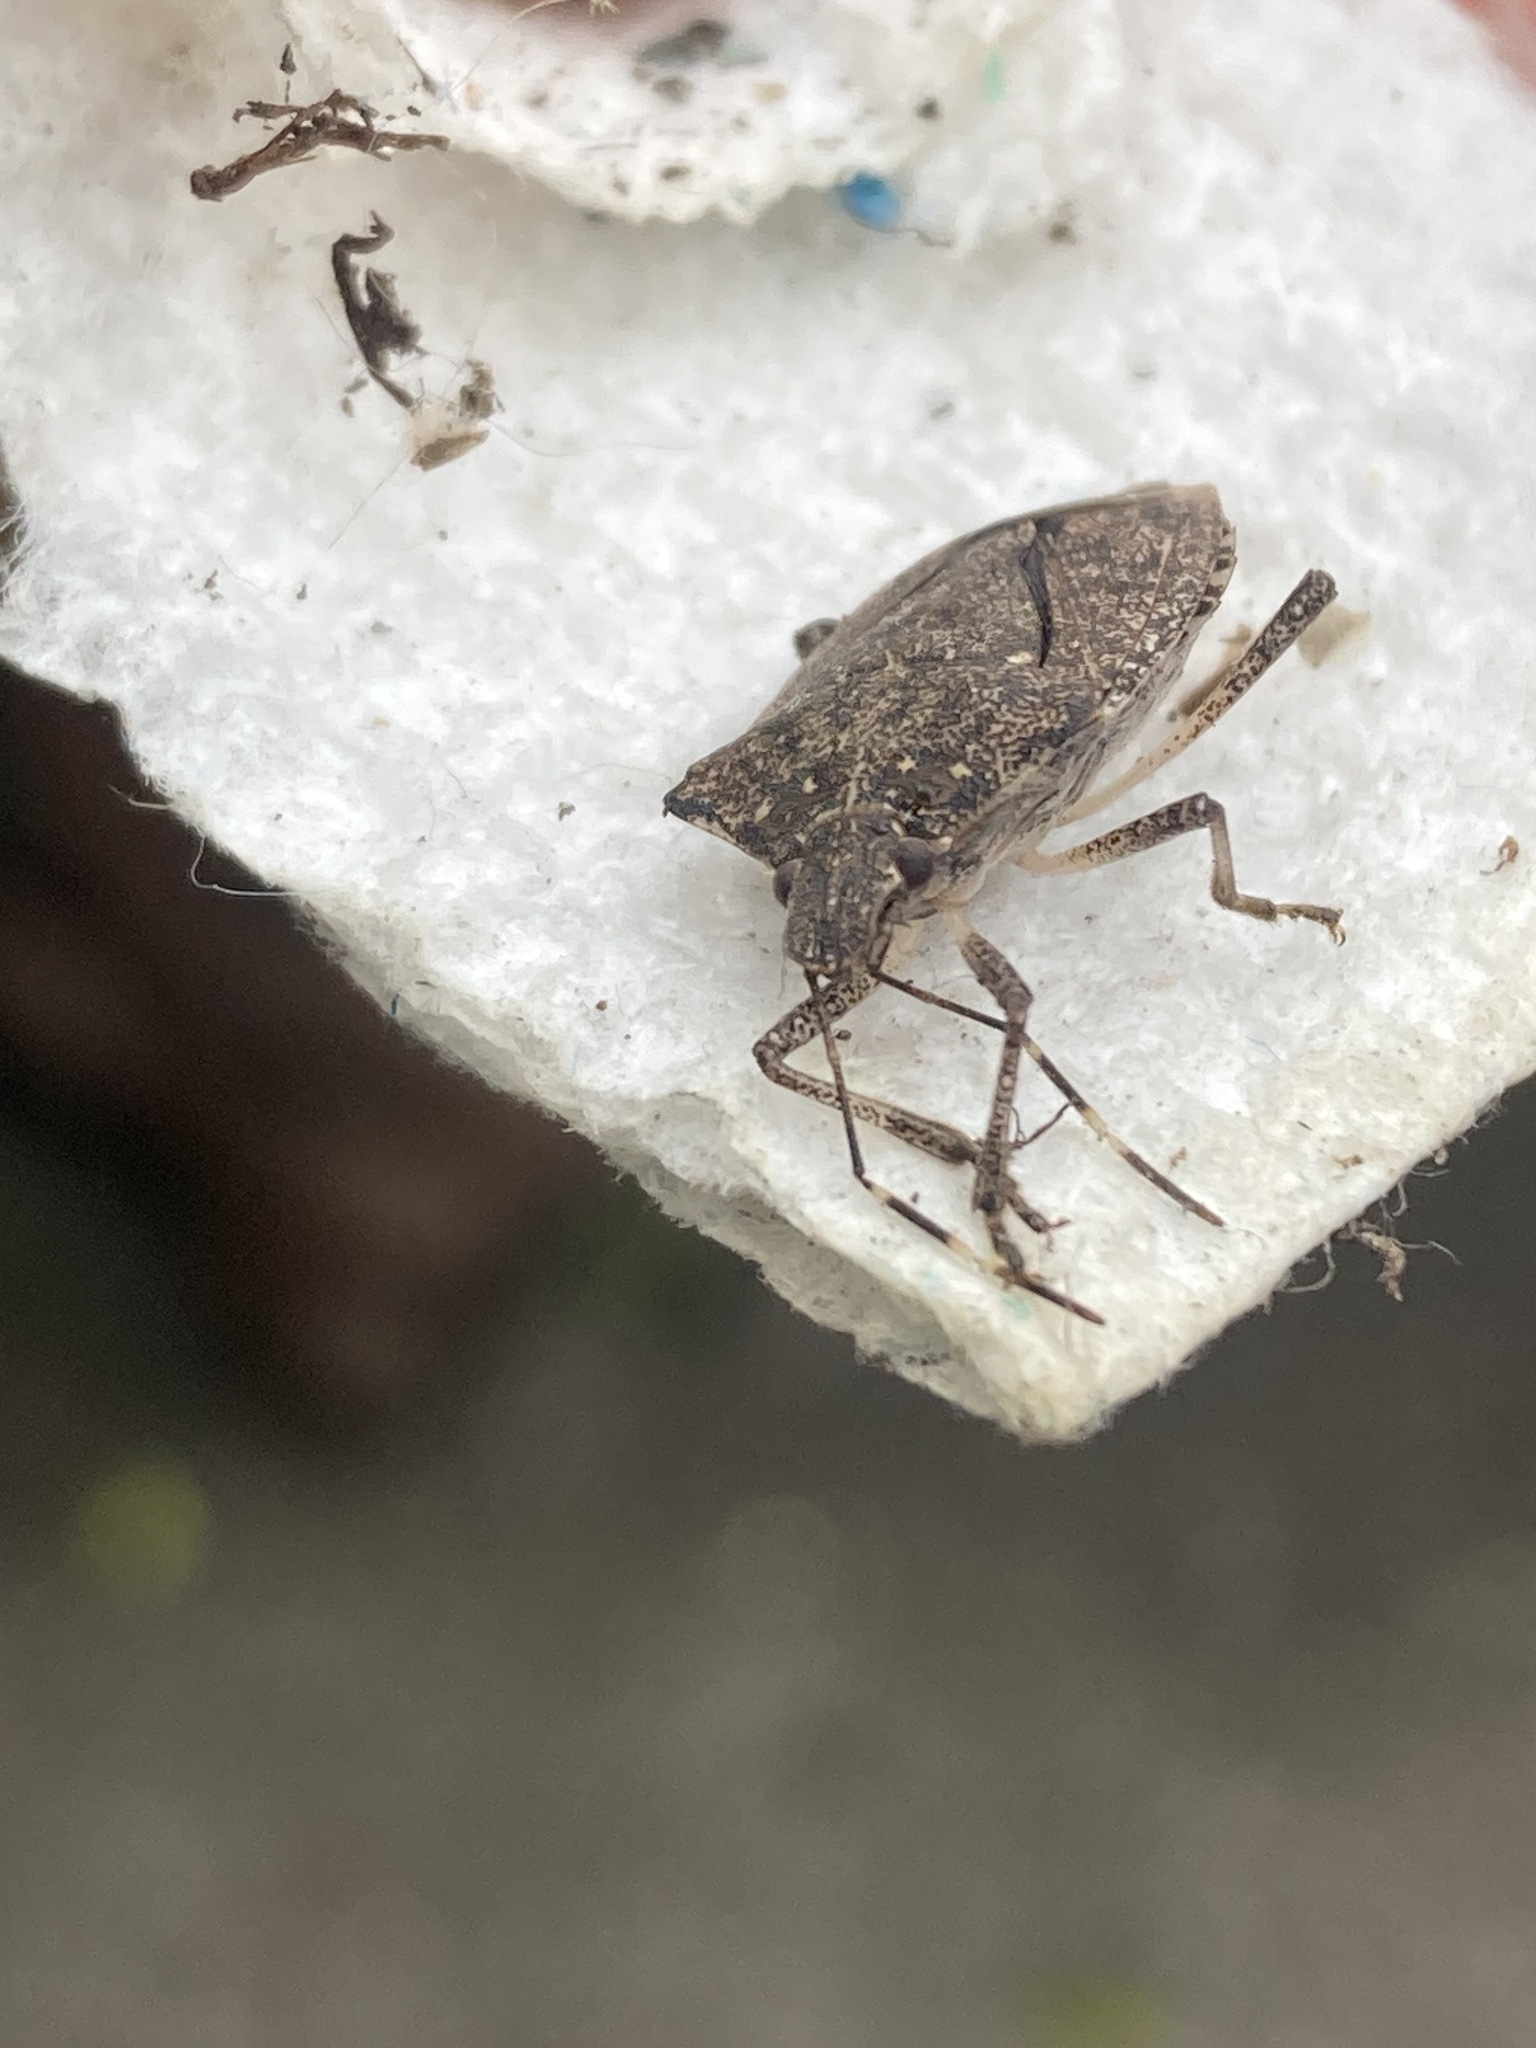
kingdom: Animalia
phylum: Arthropoda
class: Insecta
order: Hemiptera
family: Pentatomidae
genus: Halyomorpha
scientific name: Halyomorpha halys
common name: Brown marmorated stink bug
